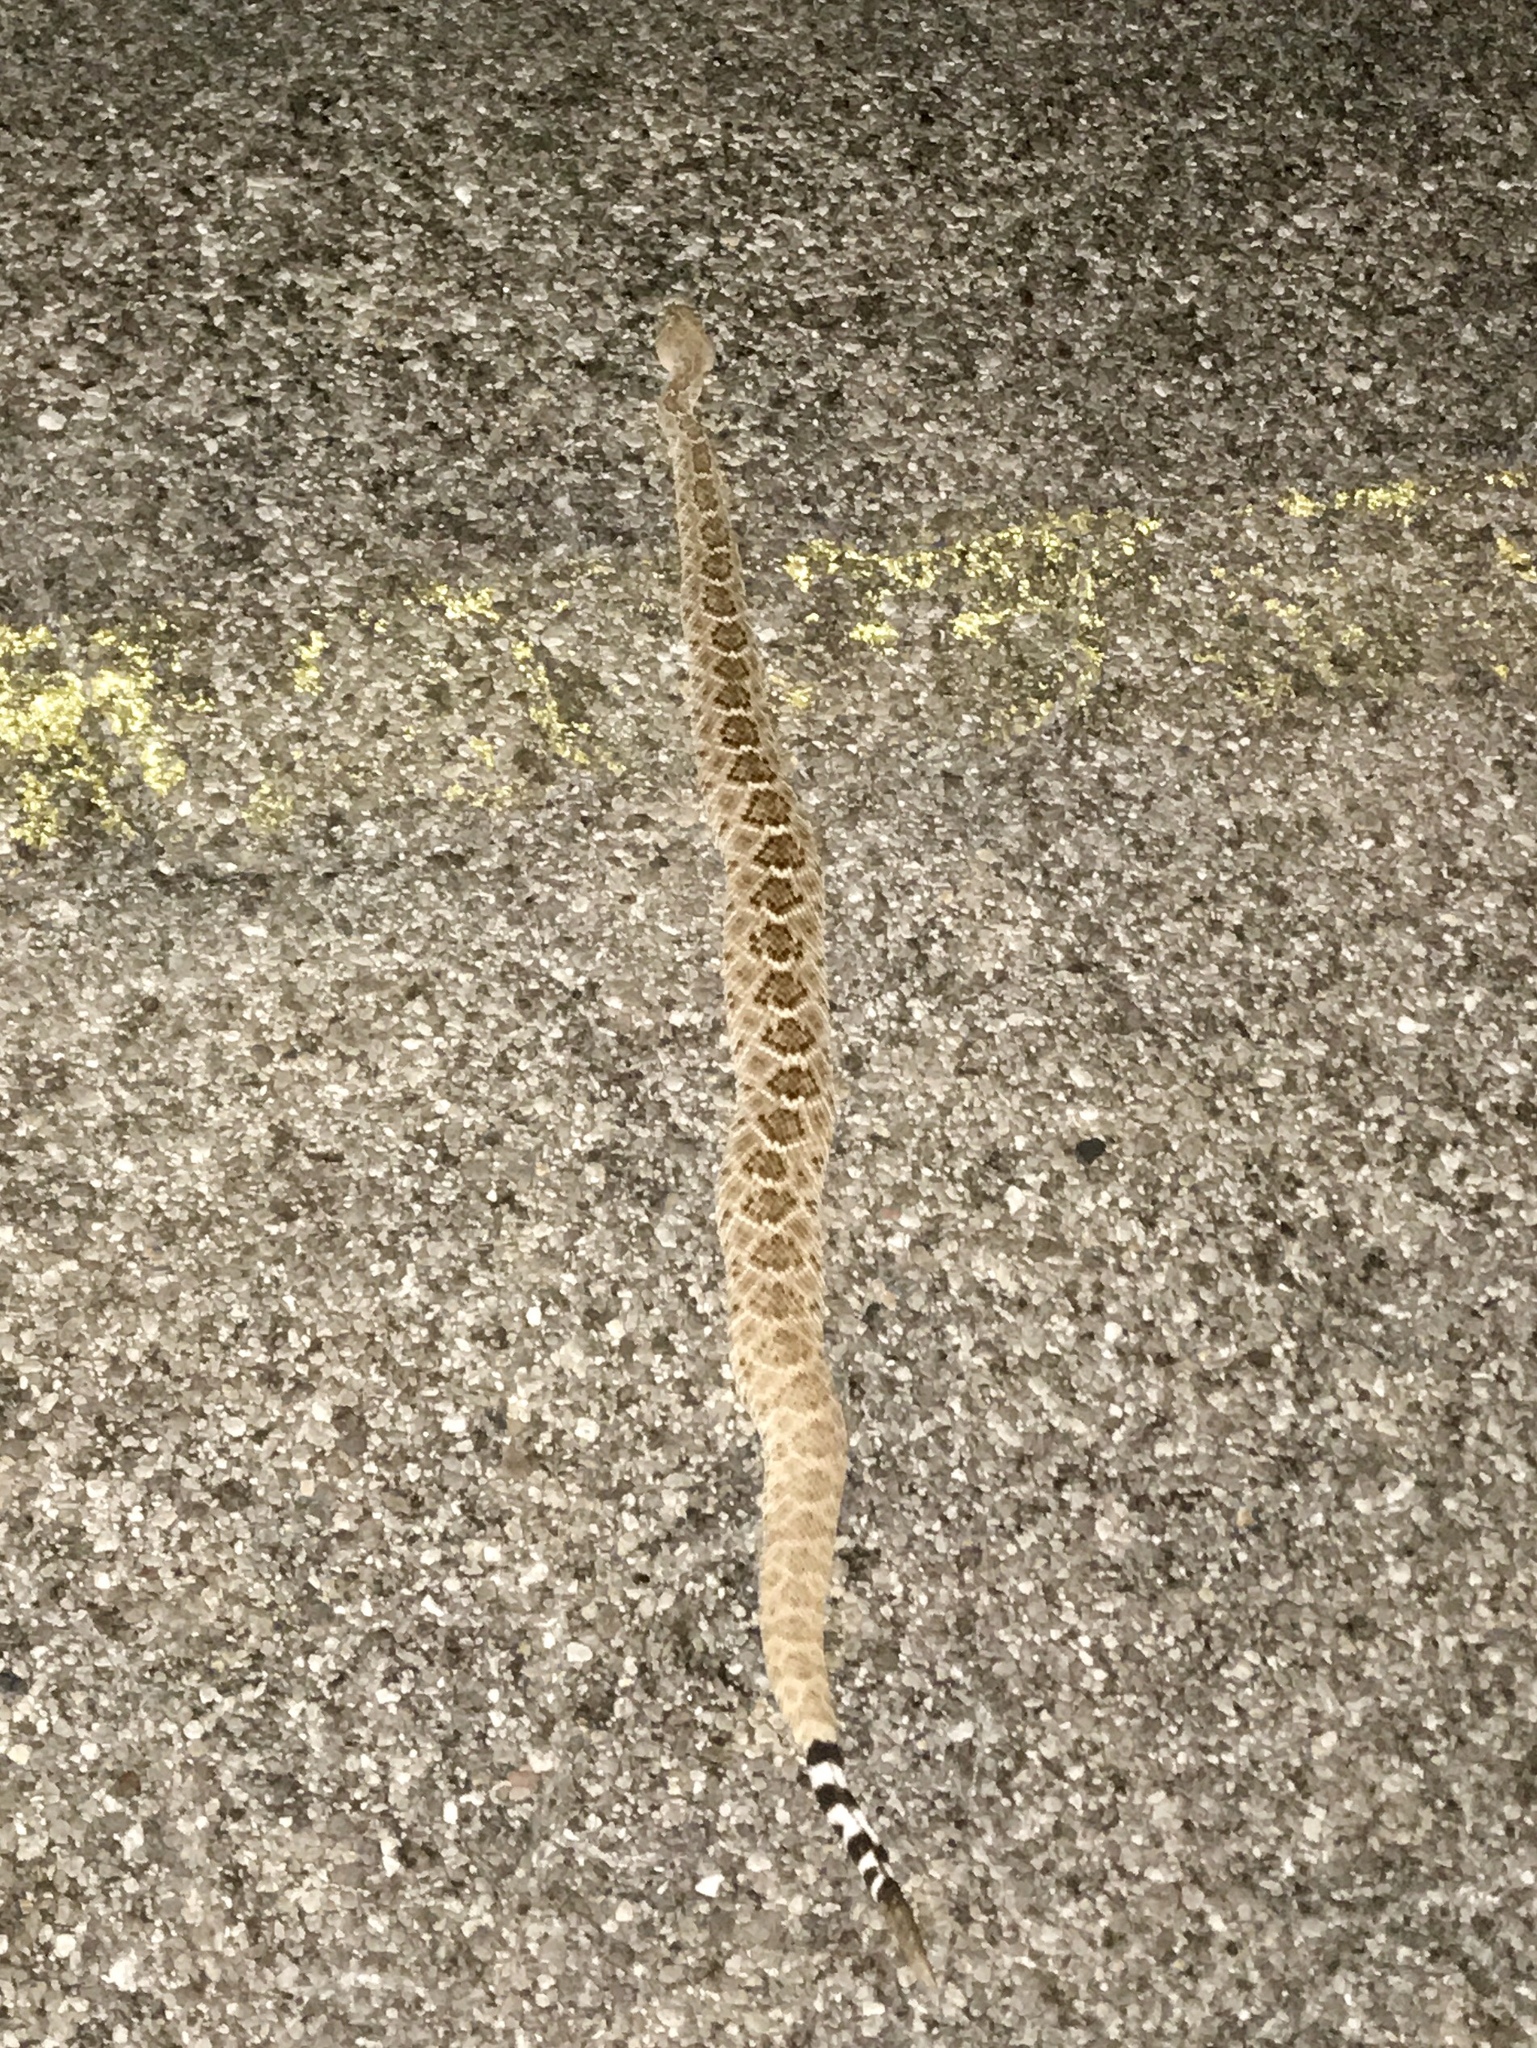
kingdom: Animalia
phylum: Chordata
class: Squamata
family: Viperidae
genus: Crotalus
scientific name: Crotalus atrox
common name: Western diamond-backed rattlesnake
